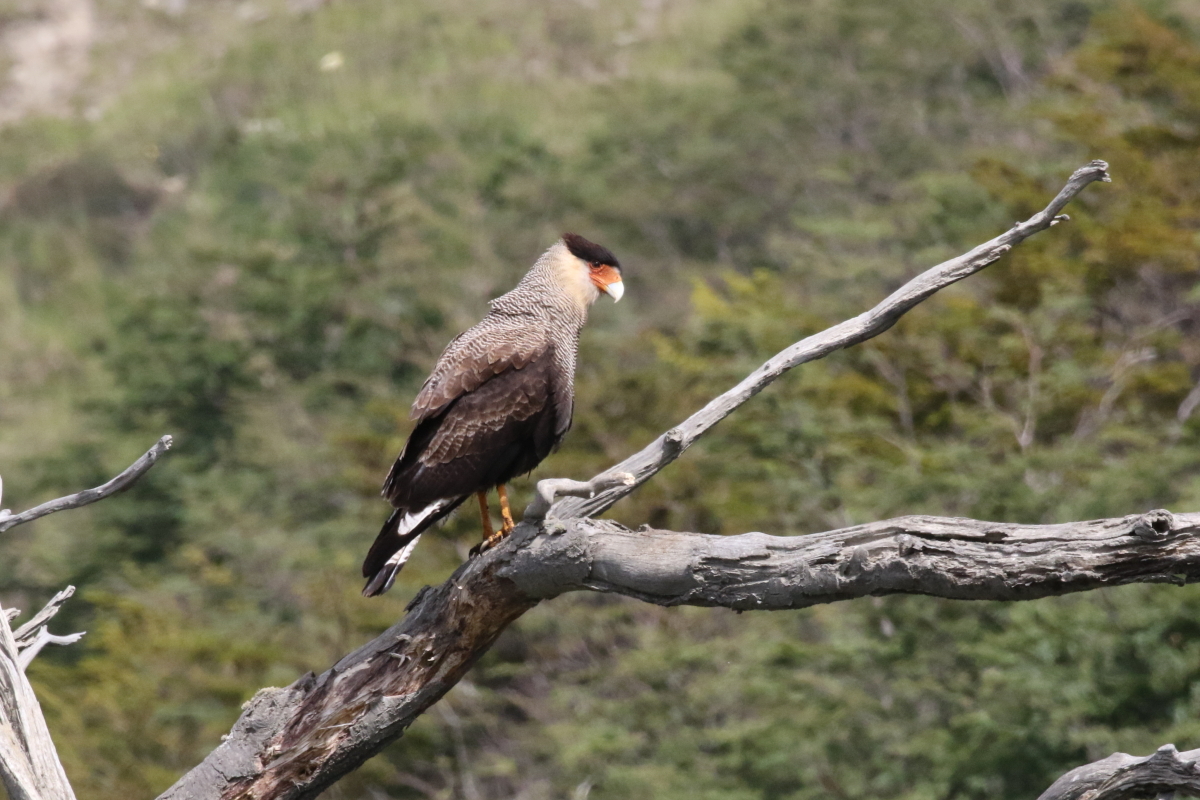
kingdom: Animalia
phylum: Chordata
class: Aves
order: Falconiformes
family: Falconidae
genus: Caracara
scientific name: Caracara plancus
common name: Southern caracara
